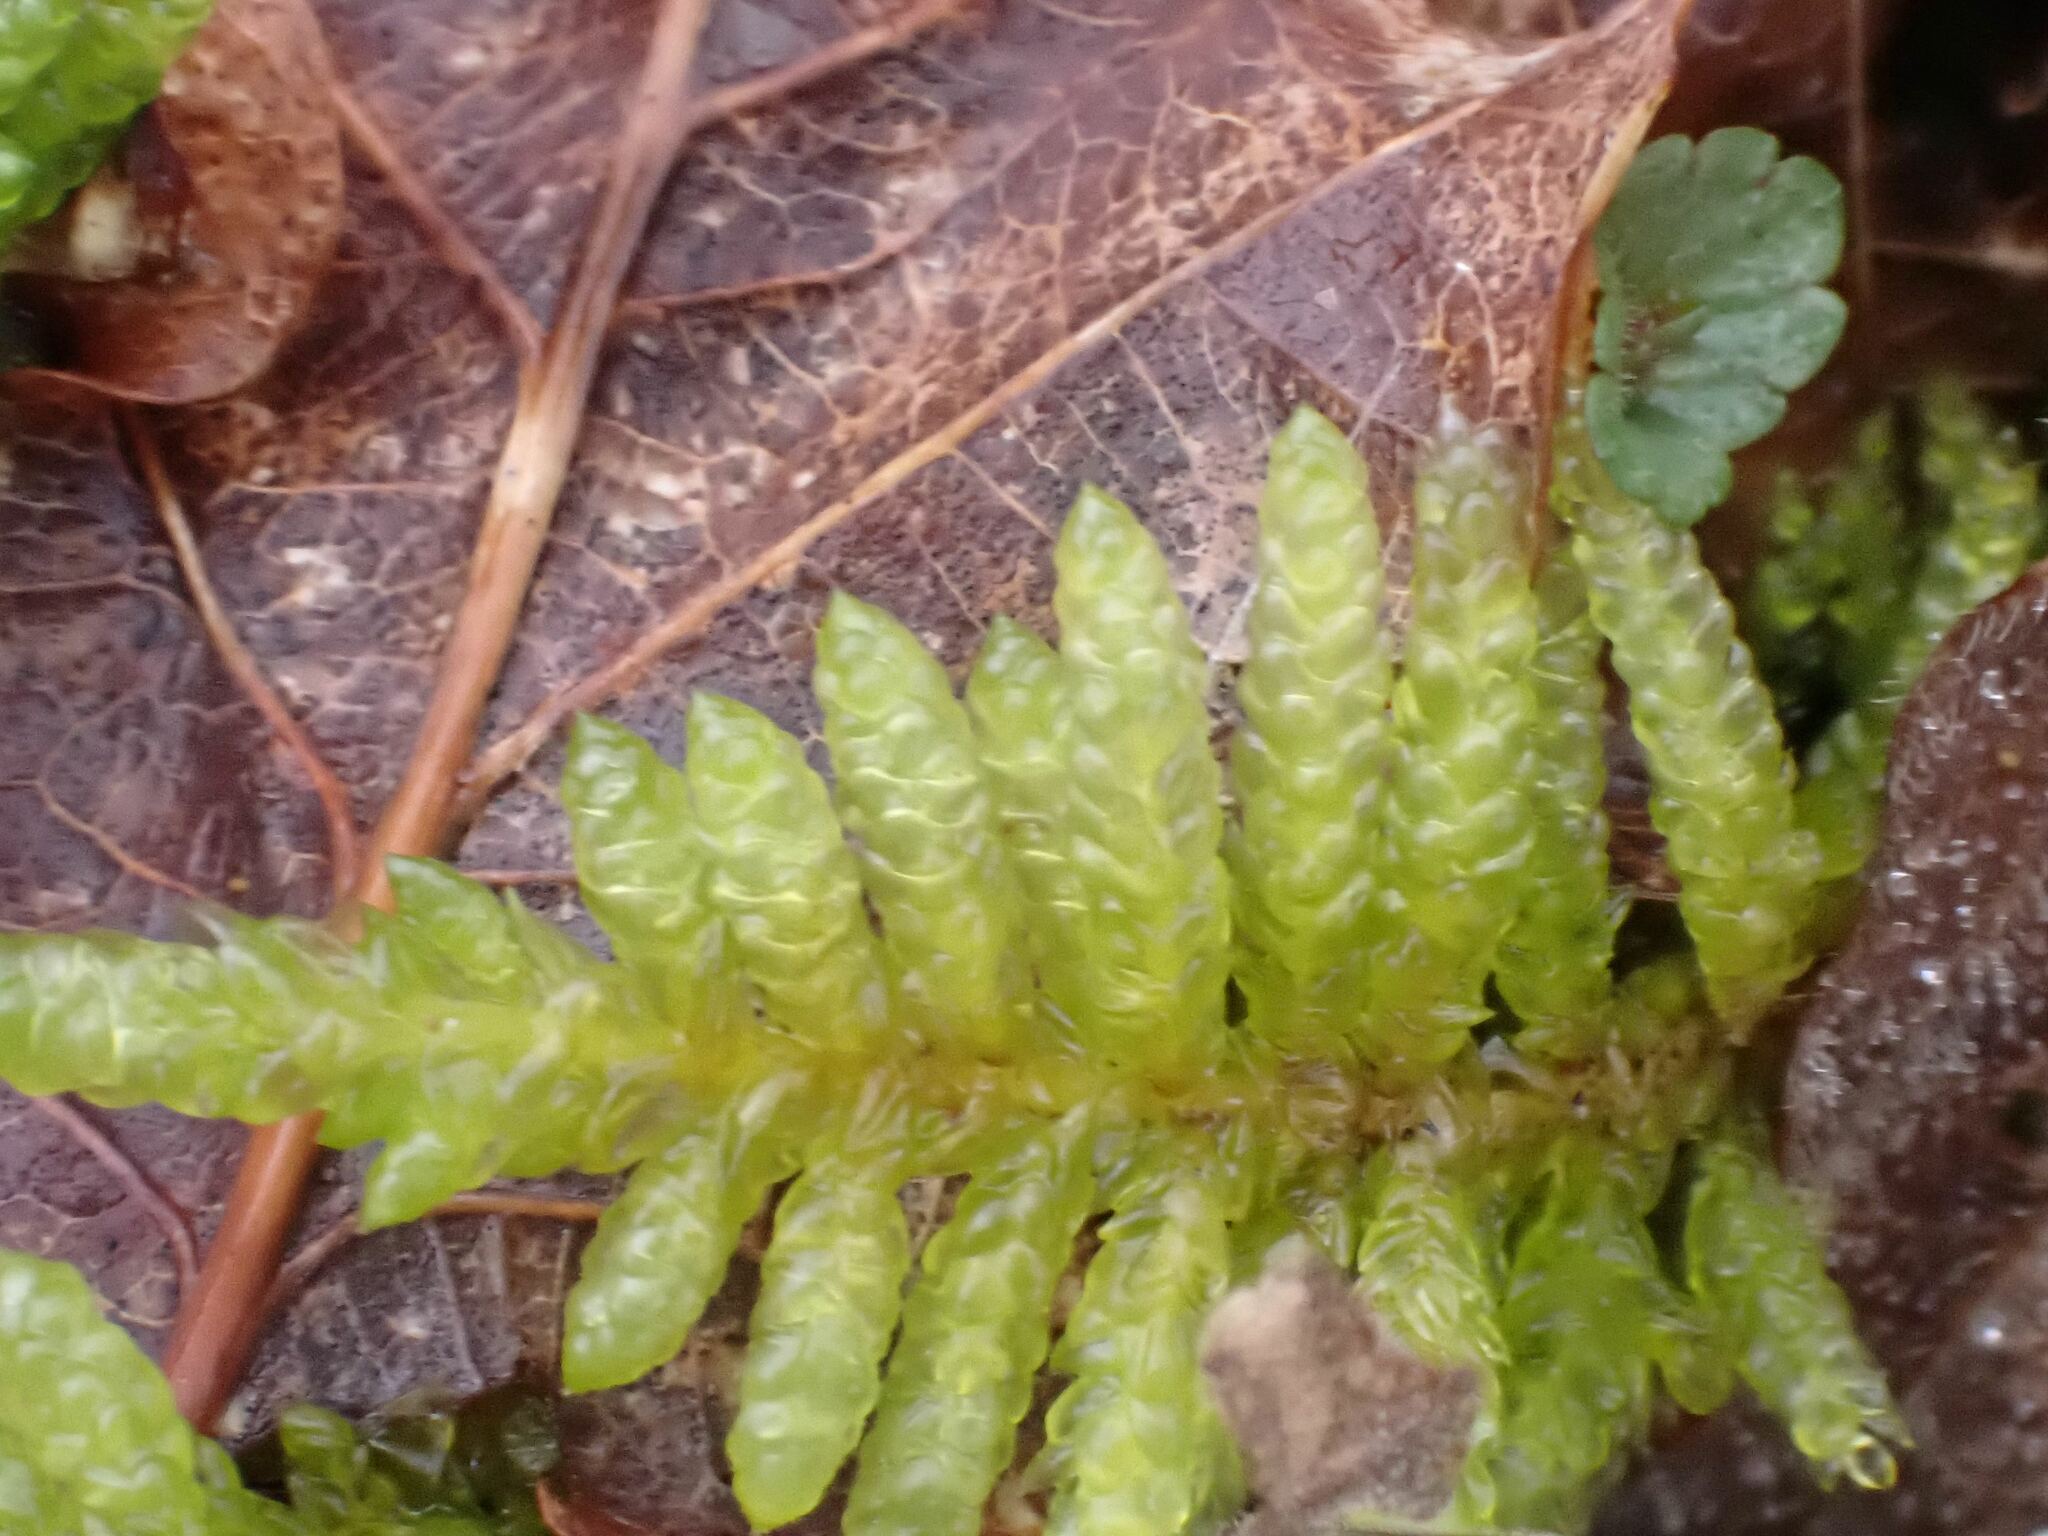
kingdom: Plantae
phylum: Bryophyta
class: Bryopsida
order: Hypnales
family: Brachytheciaceae
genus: Pseudoscleropodium
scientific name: Pseudoscleropodium purum
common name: Neat feather-moss
